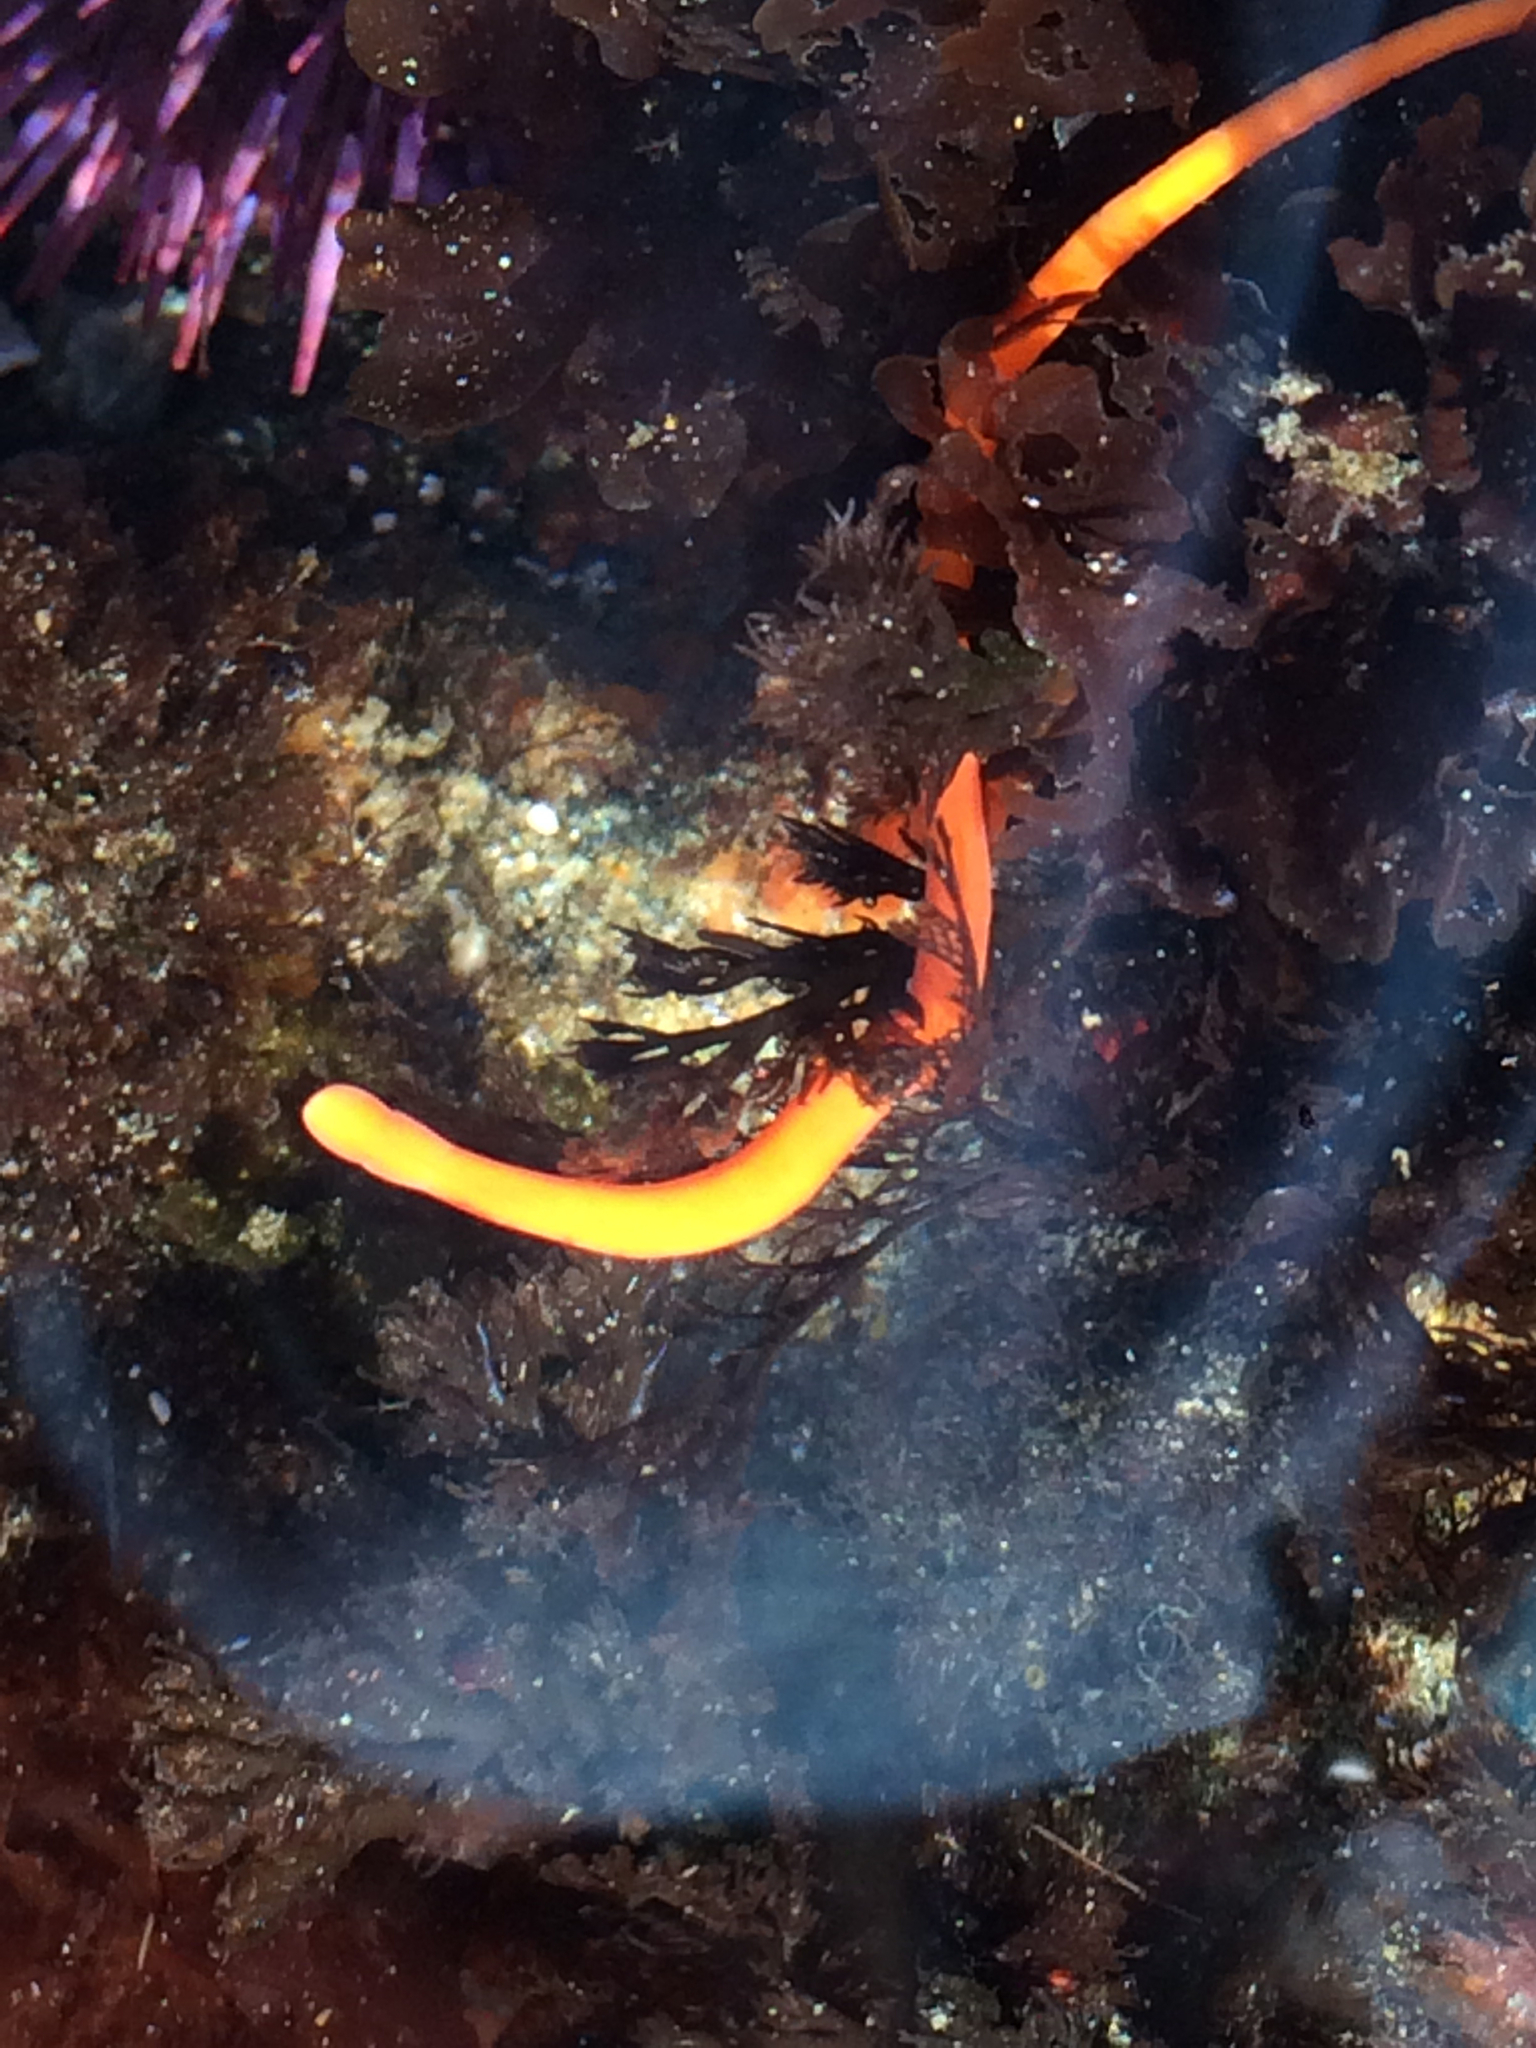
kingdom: Animalia
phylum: Nemertea
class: Palaeonemertea
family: Tubulanidae
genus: Tubulanus
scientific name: Tubulanus polymorphus
